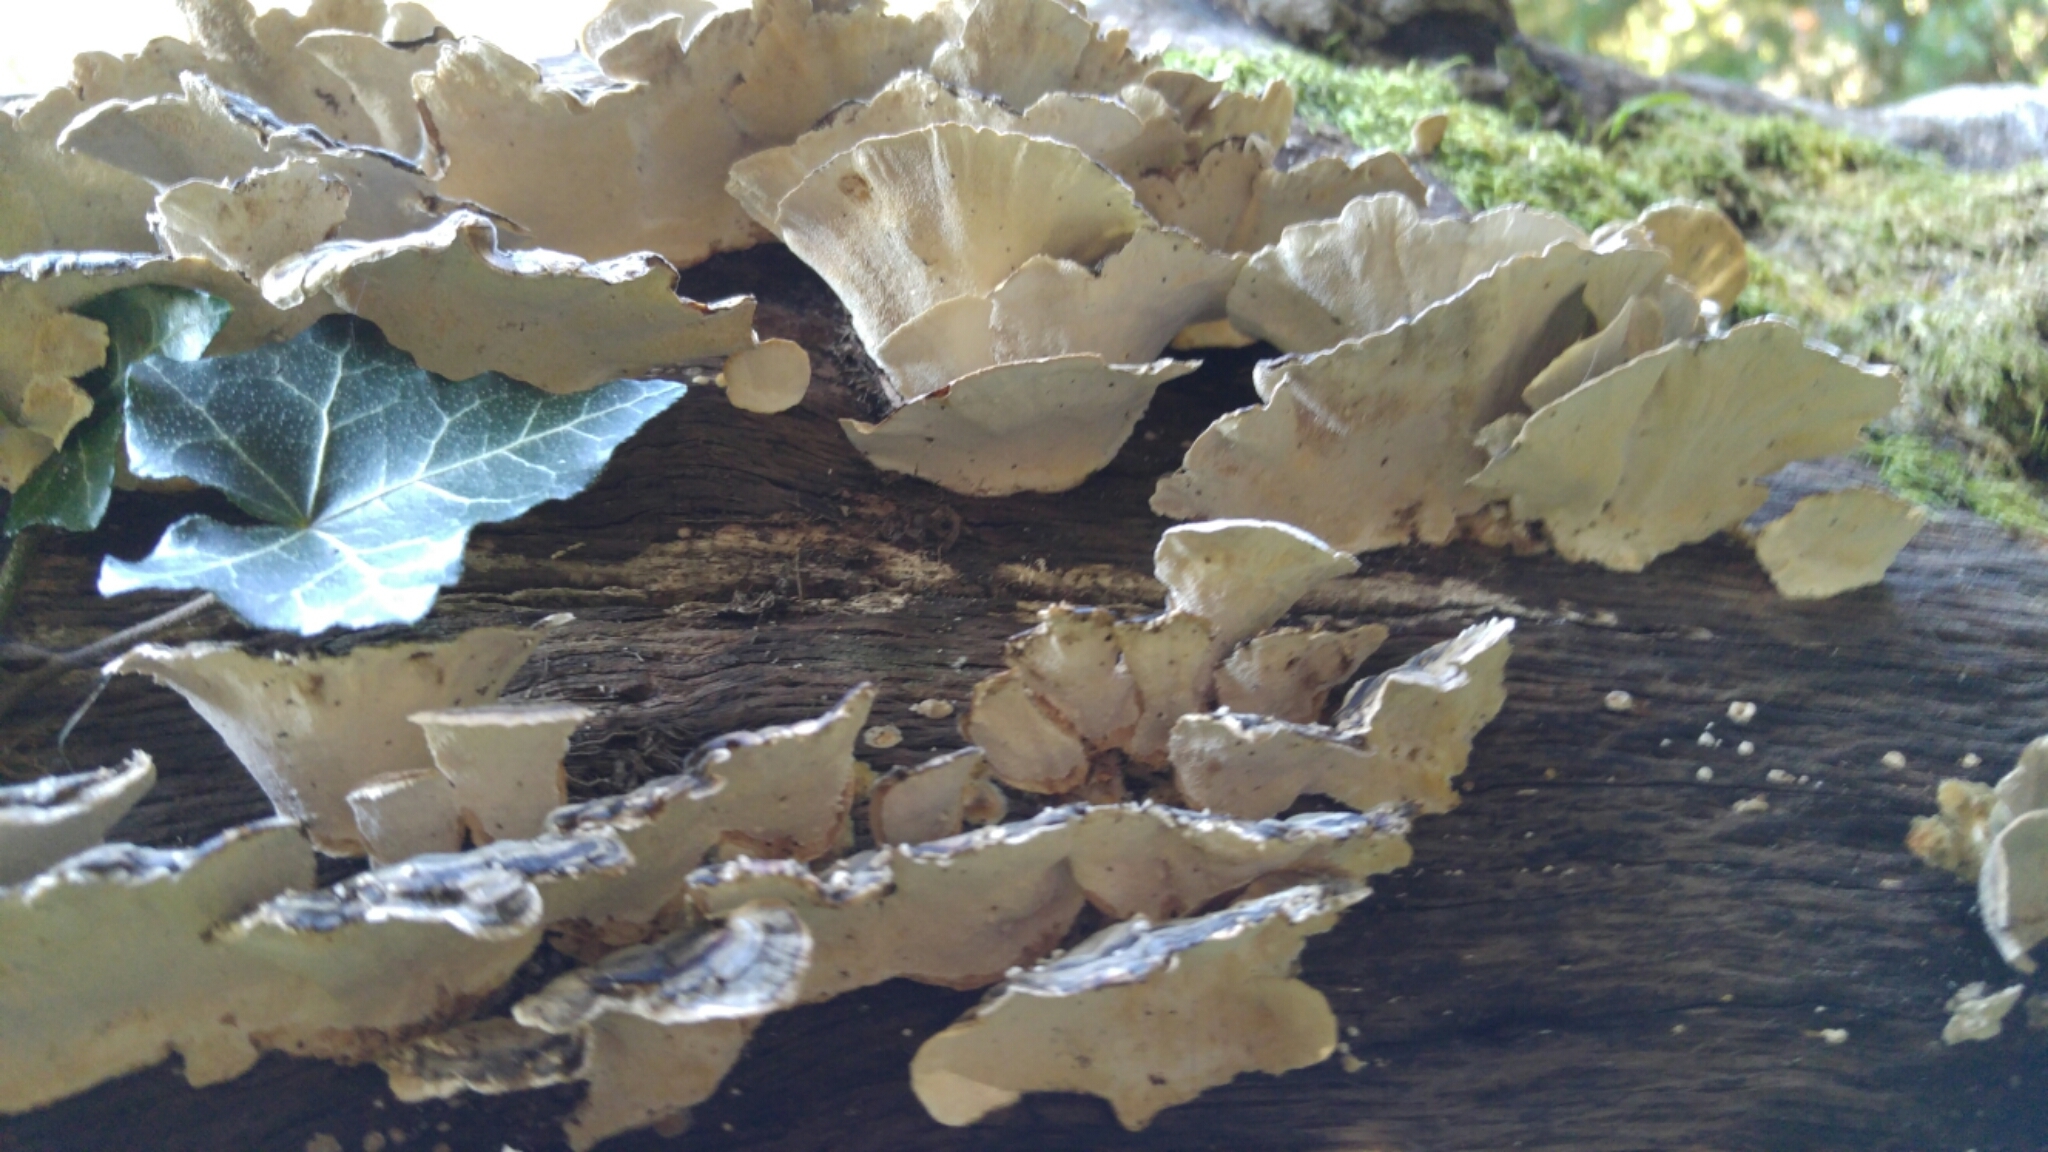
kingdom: Fungi
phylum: Basidiomycota
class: Agaricomycetes
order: Polyporales
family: Polyporaceae
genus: Trametes
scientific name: Trametes versicolor
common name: Turkeytail
